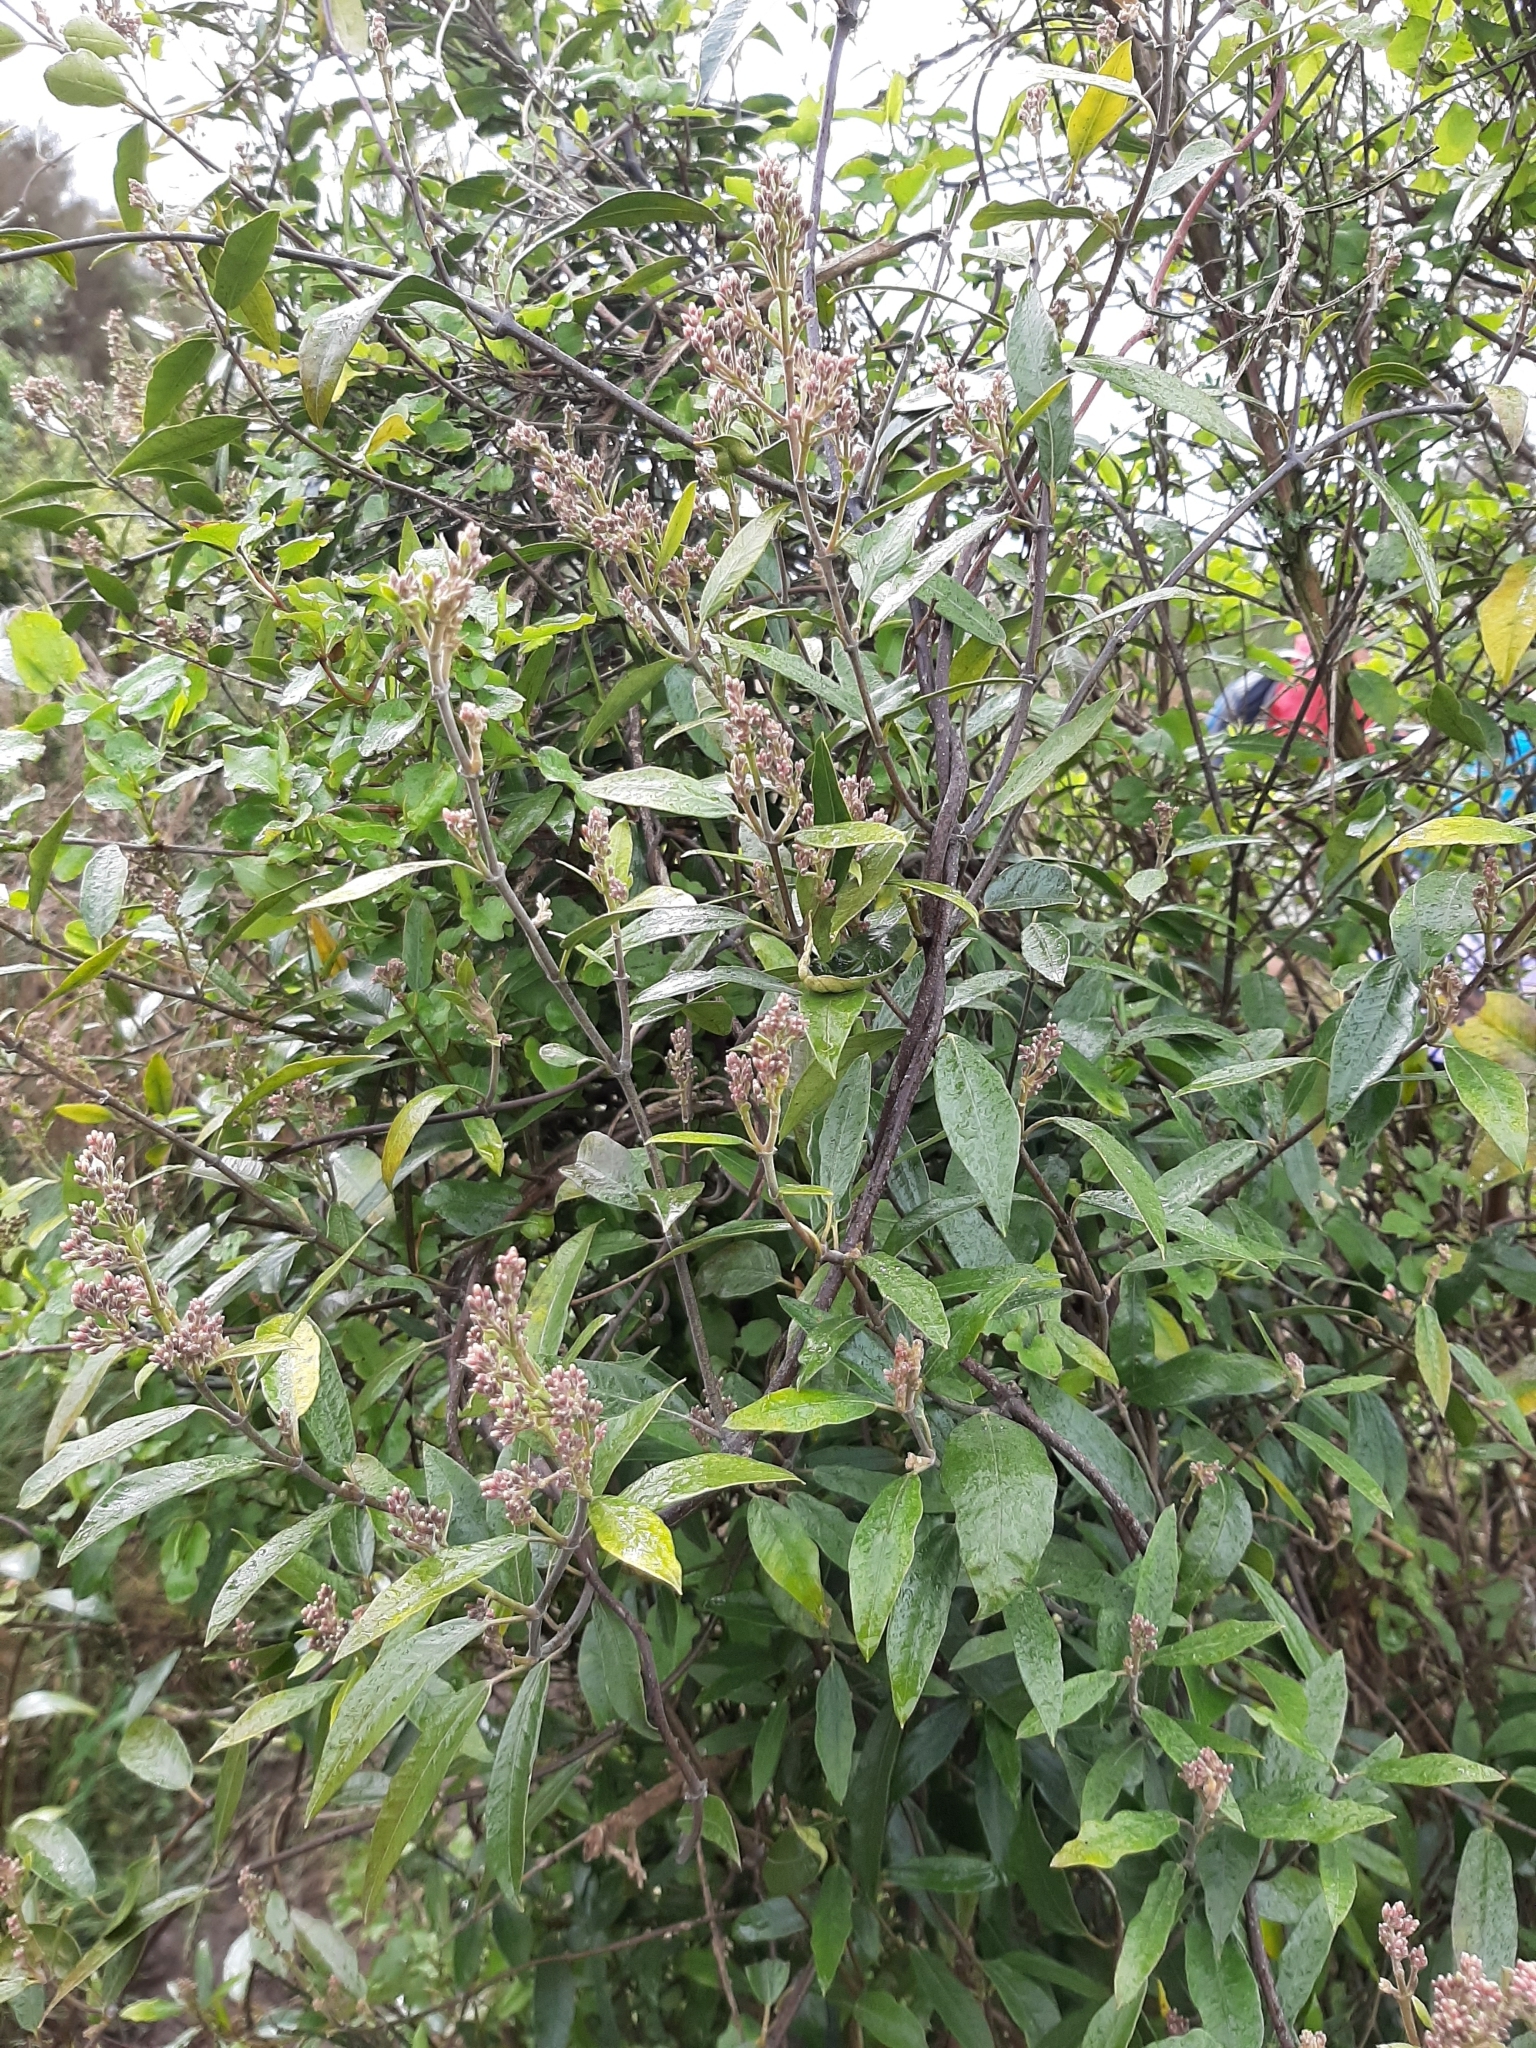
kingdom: Plantae
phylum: Tracheophyta
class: Magnoliopsida
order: Gentianales
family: Apocynaceae
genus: Parsonsia
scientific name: Parsonsia heterophylla
